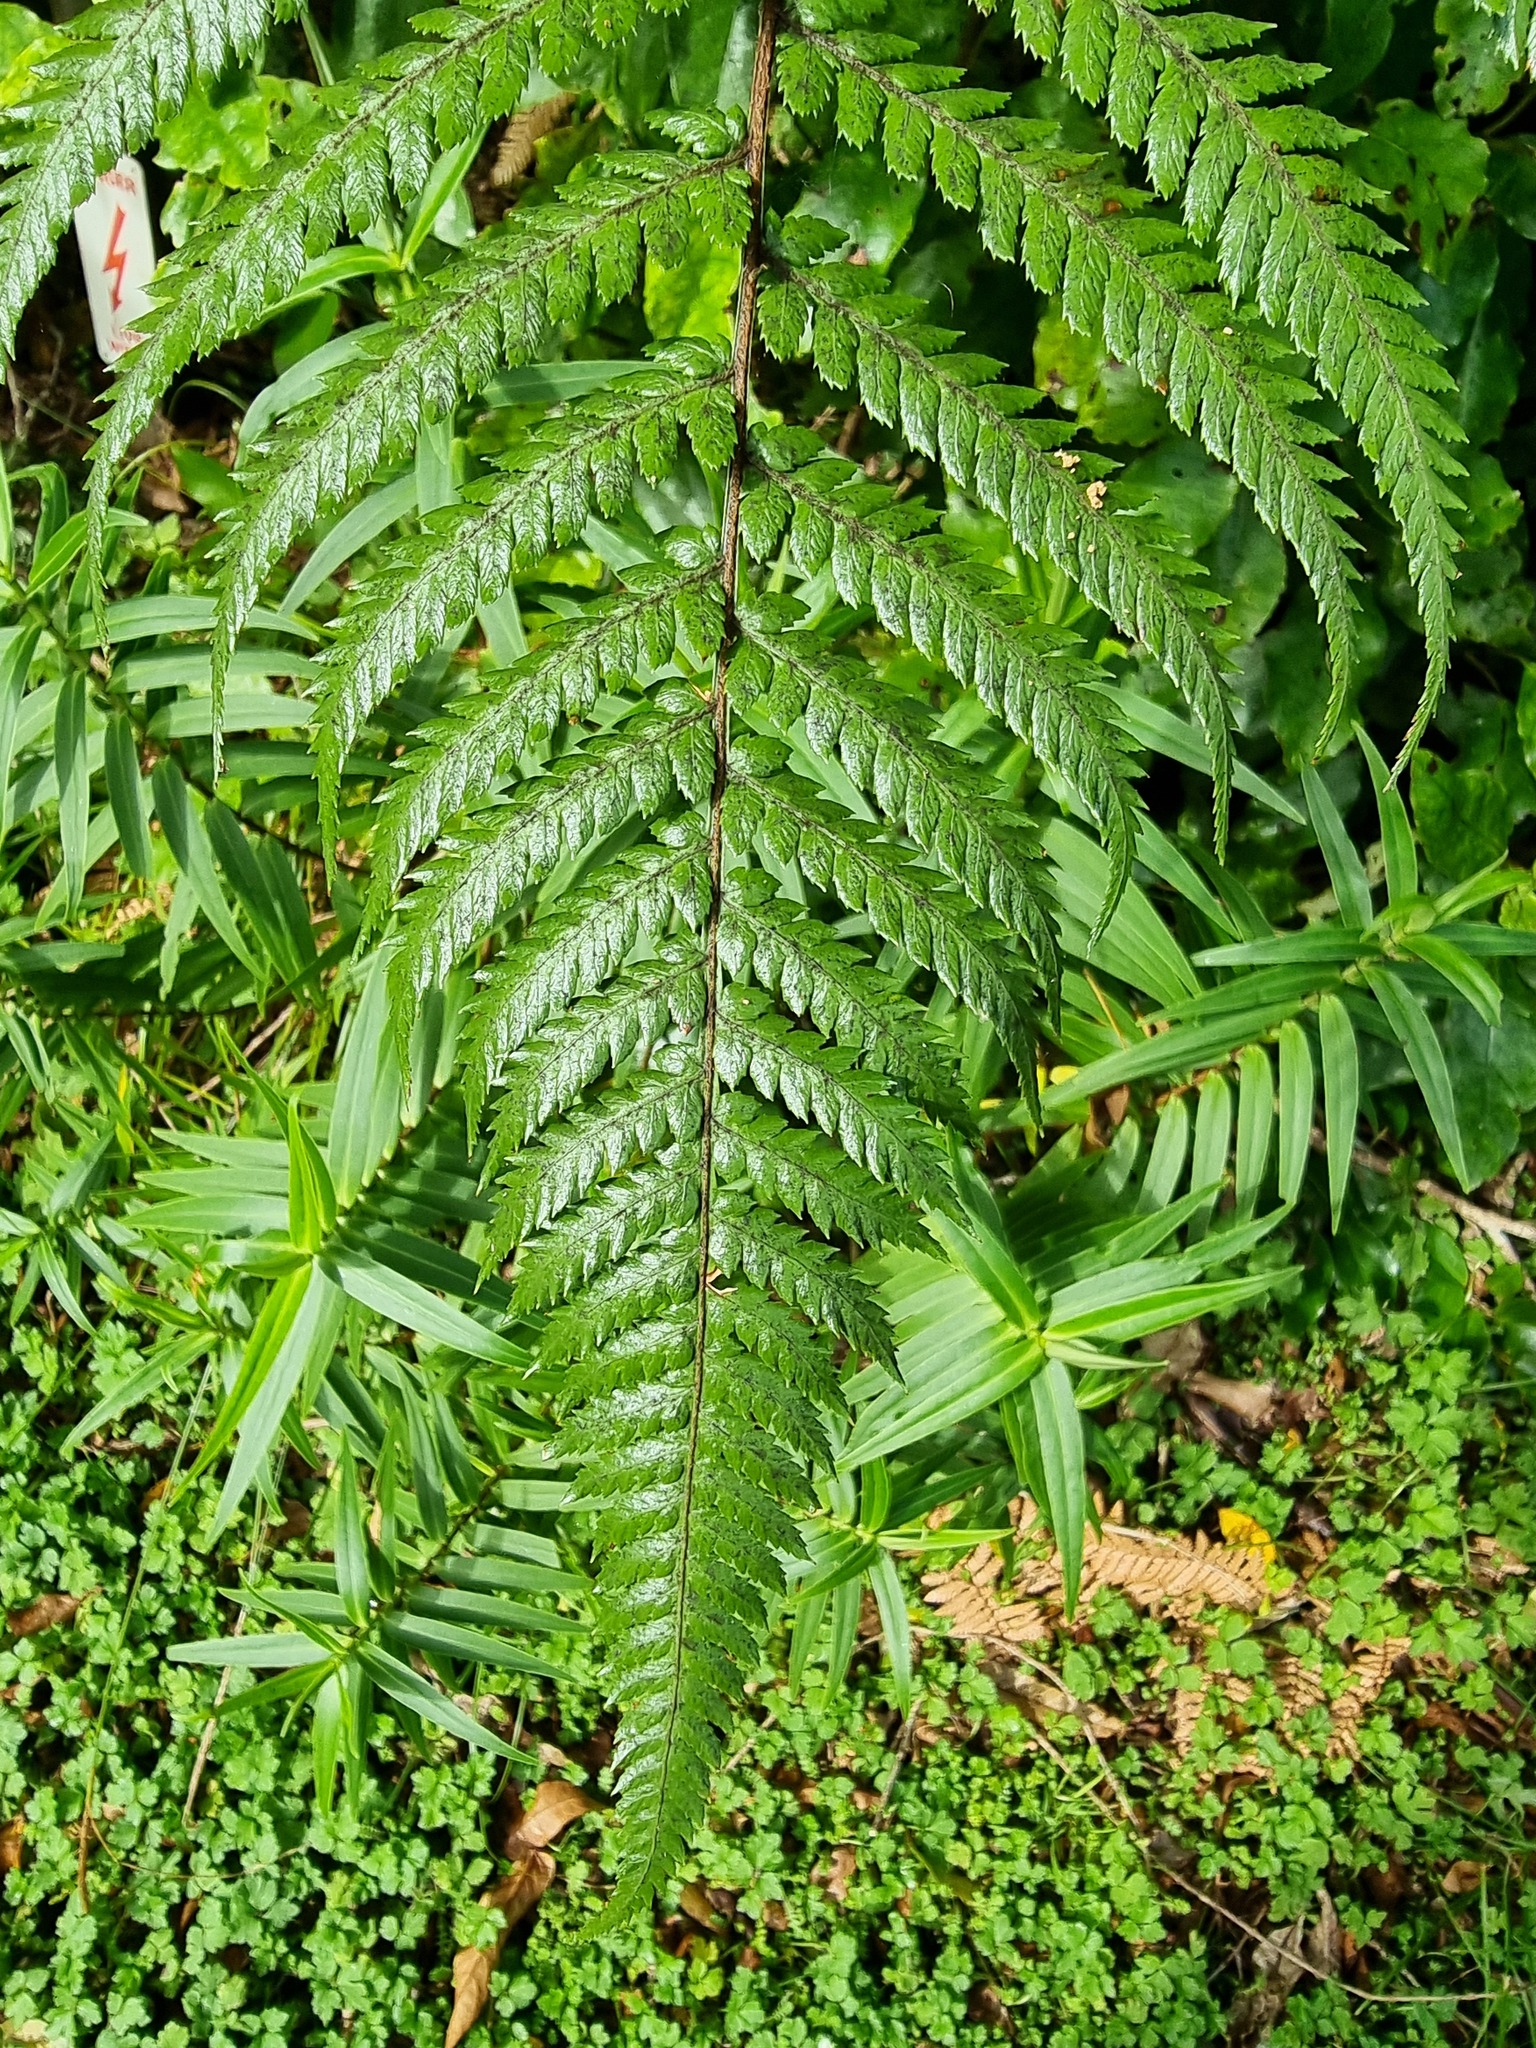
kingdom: Plantae
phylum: Tracheophyta
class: Polypodiopsida
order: Cyatheales
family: Dicksoniaceae
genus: Dicksonia
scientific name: Dicksonia squarrosa
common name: Hard treefern
